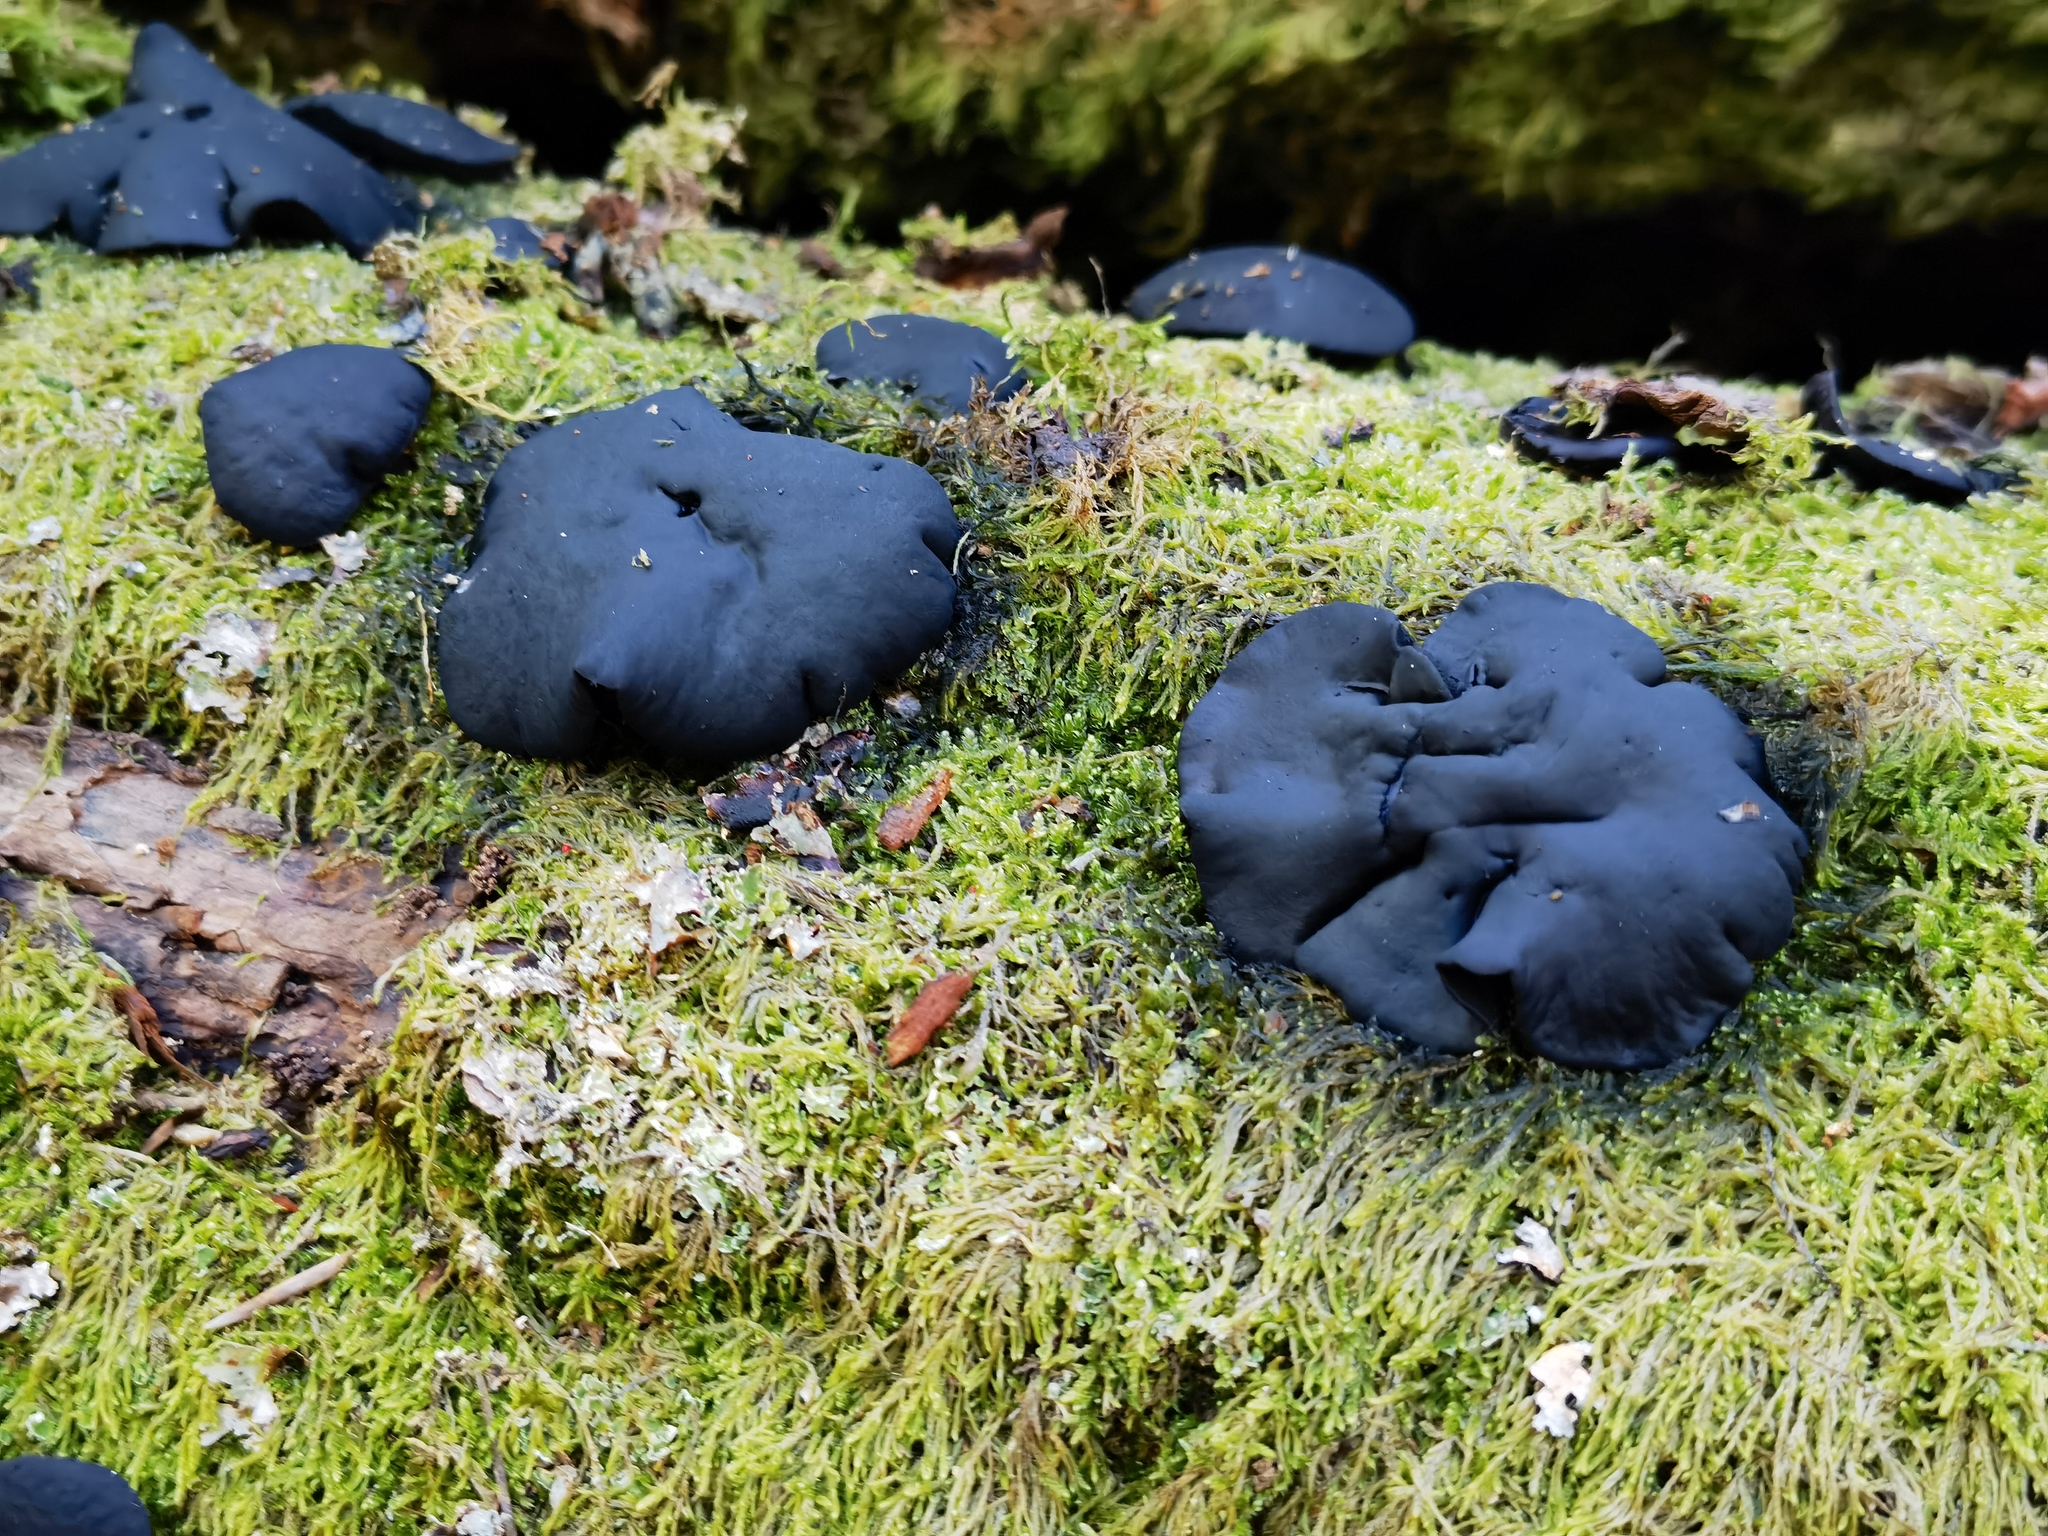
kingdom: Fungi
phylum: Ascomycota
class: Leotiomycetes
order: Phacidiales
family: Phacidiaceae
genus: Bulgaria
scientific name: Bulgaria inquinans
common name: Black bulgar
